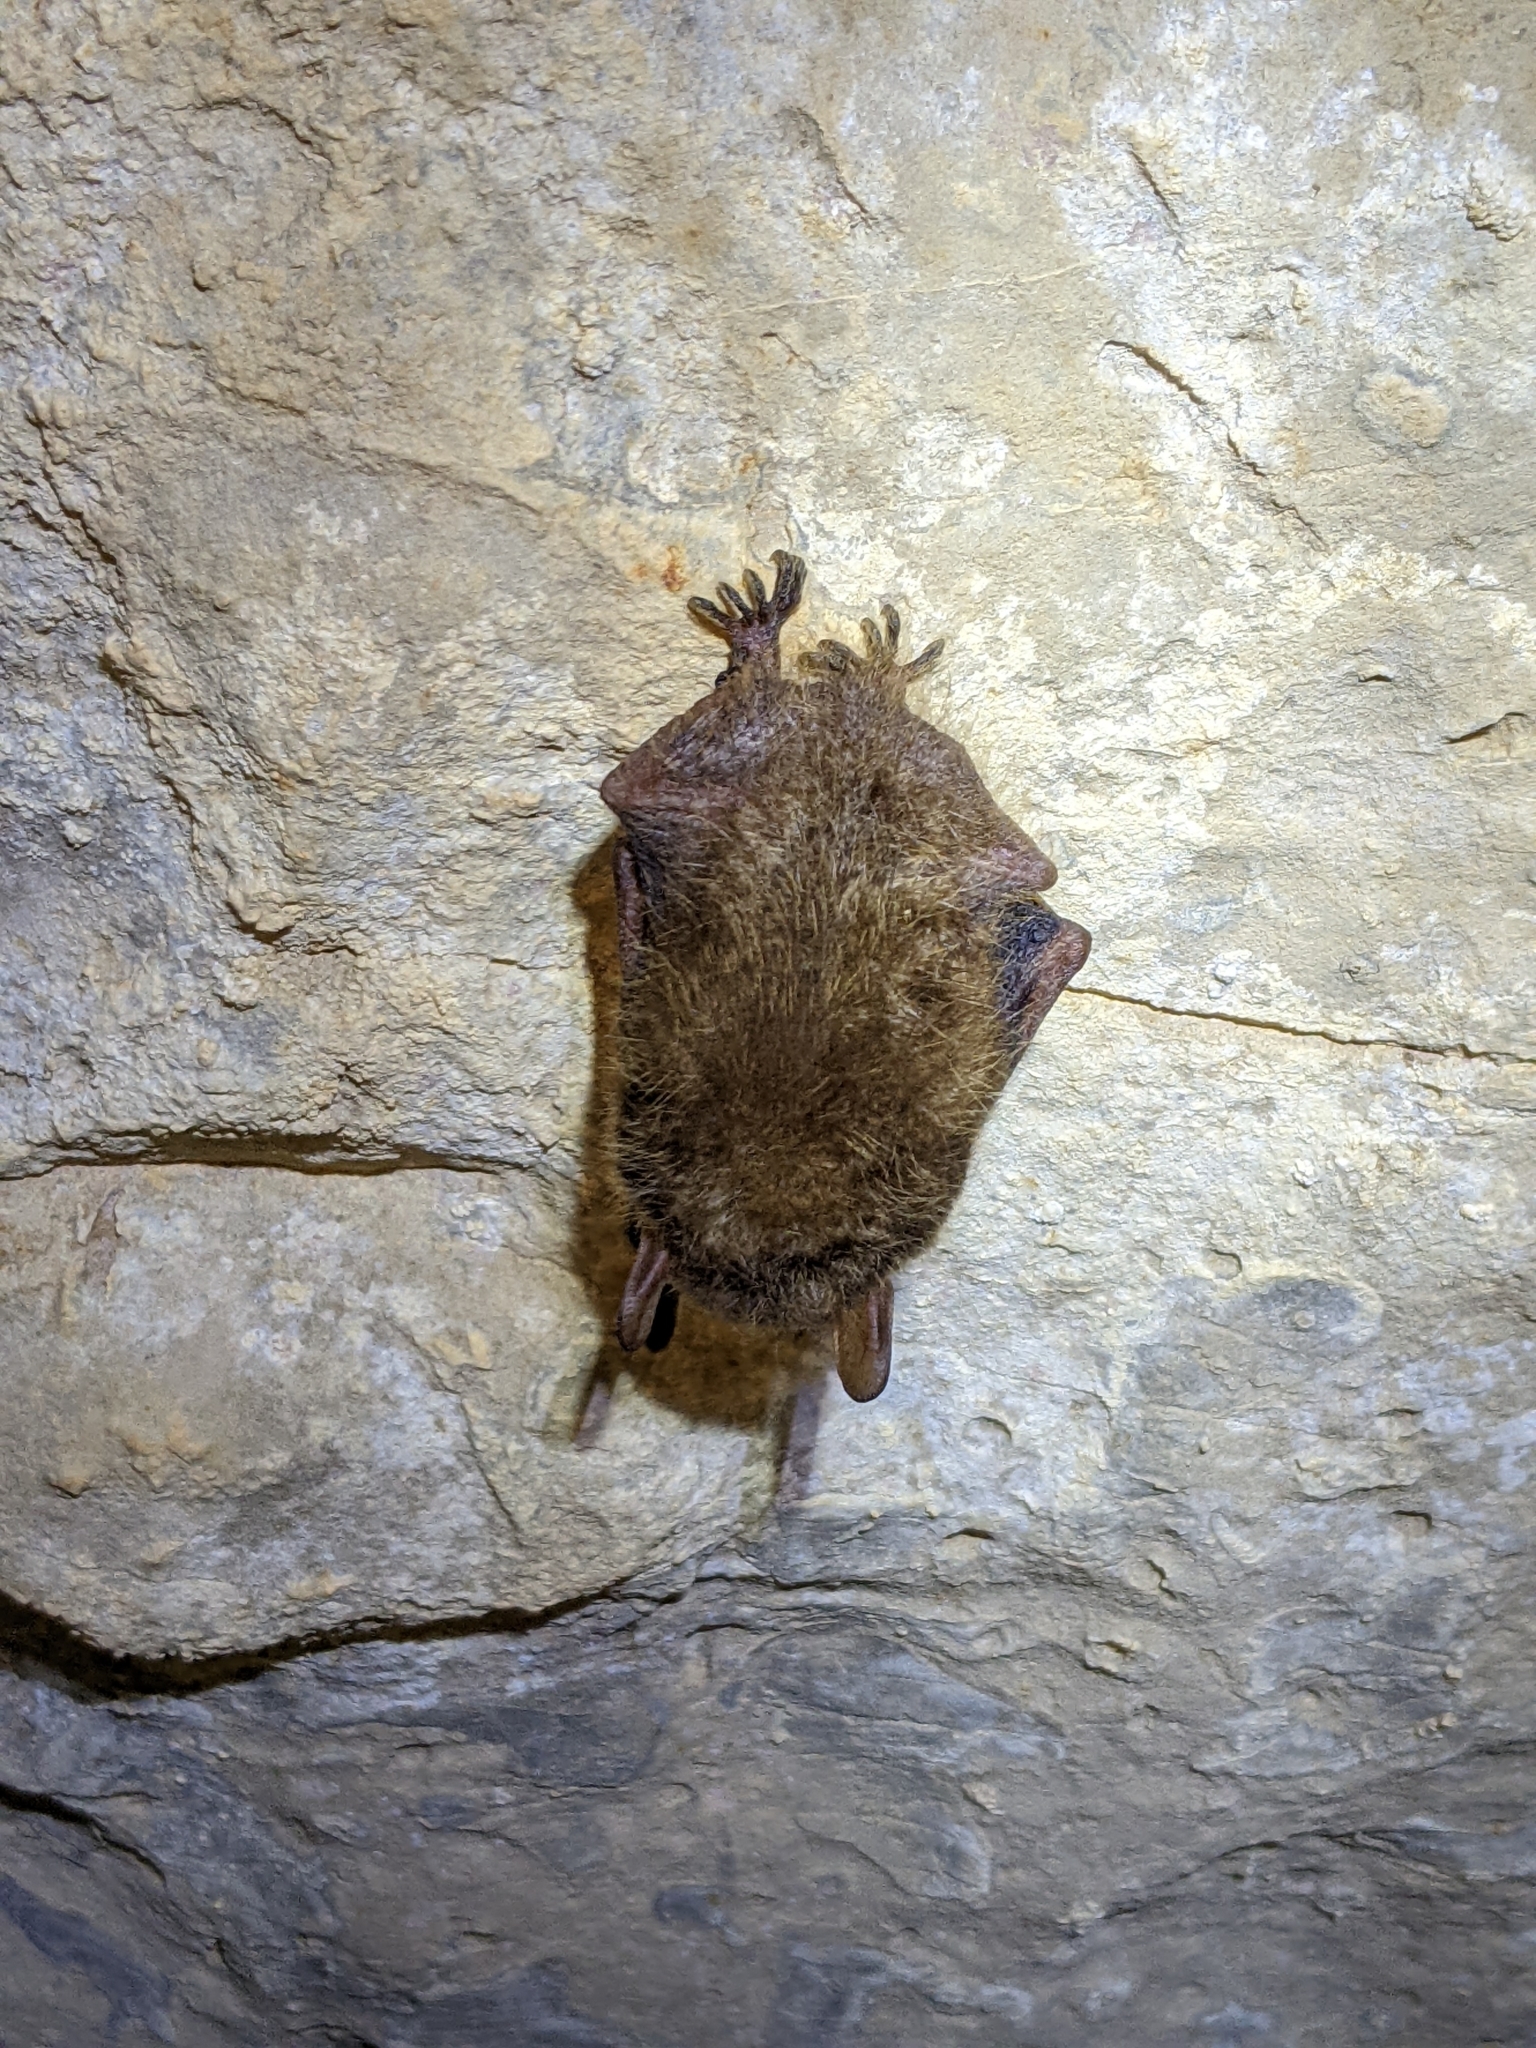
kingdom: Animalia
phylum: Chordata
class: Mammalia
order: Chiroptera
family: Vespertilionidae
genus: Perimyotis
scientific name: Perimyotis subflavus
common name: Eastern pipistrelle
